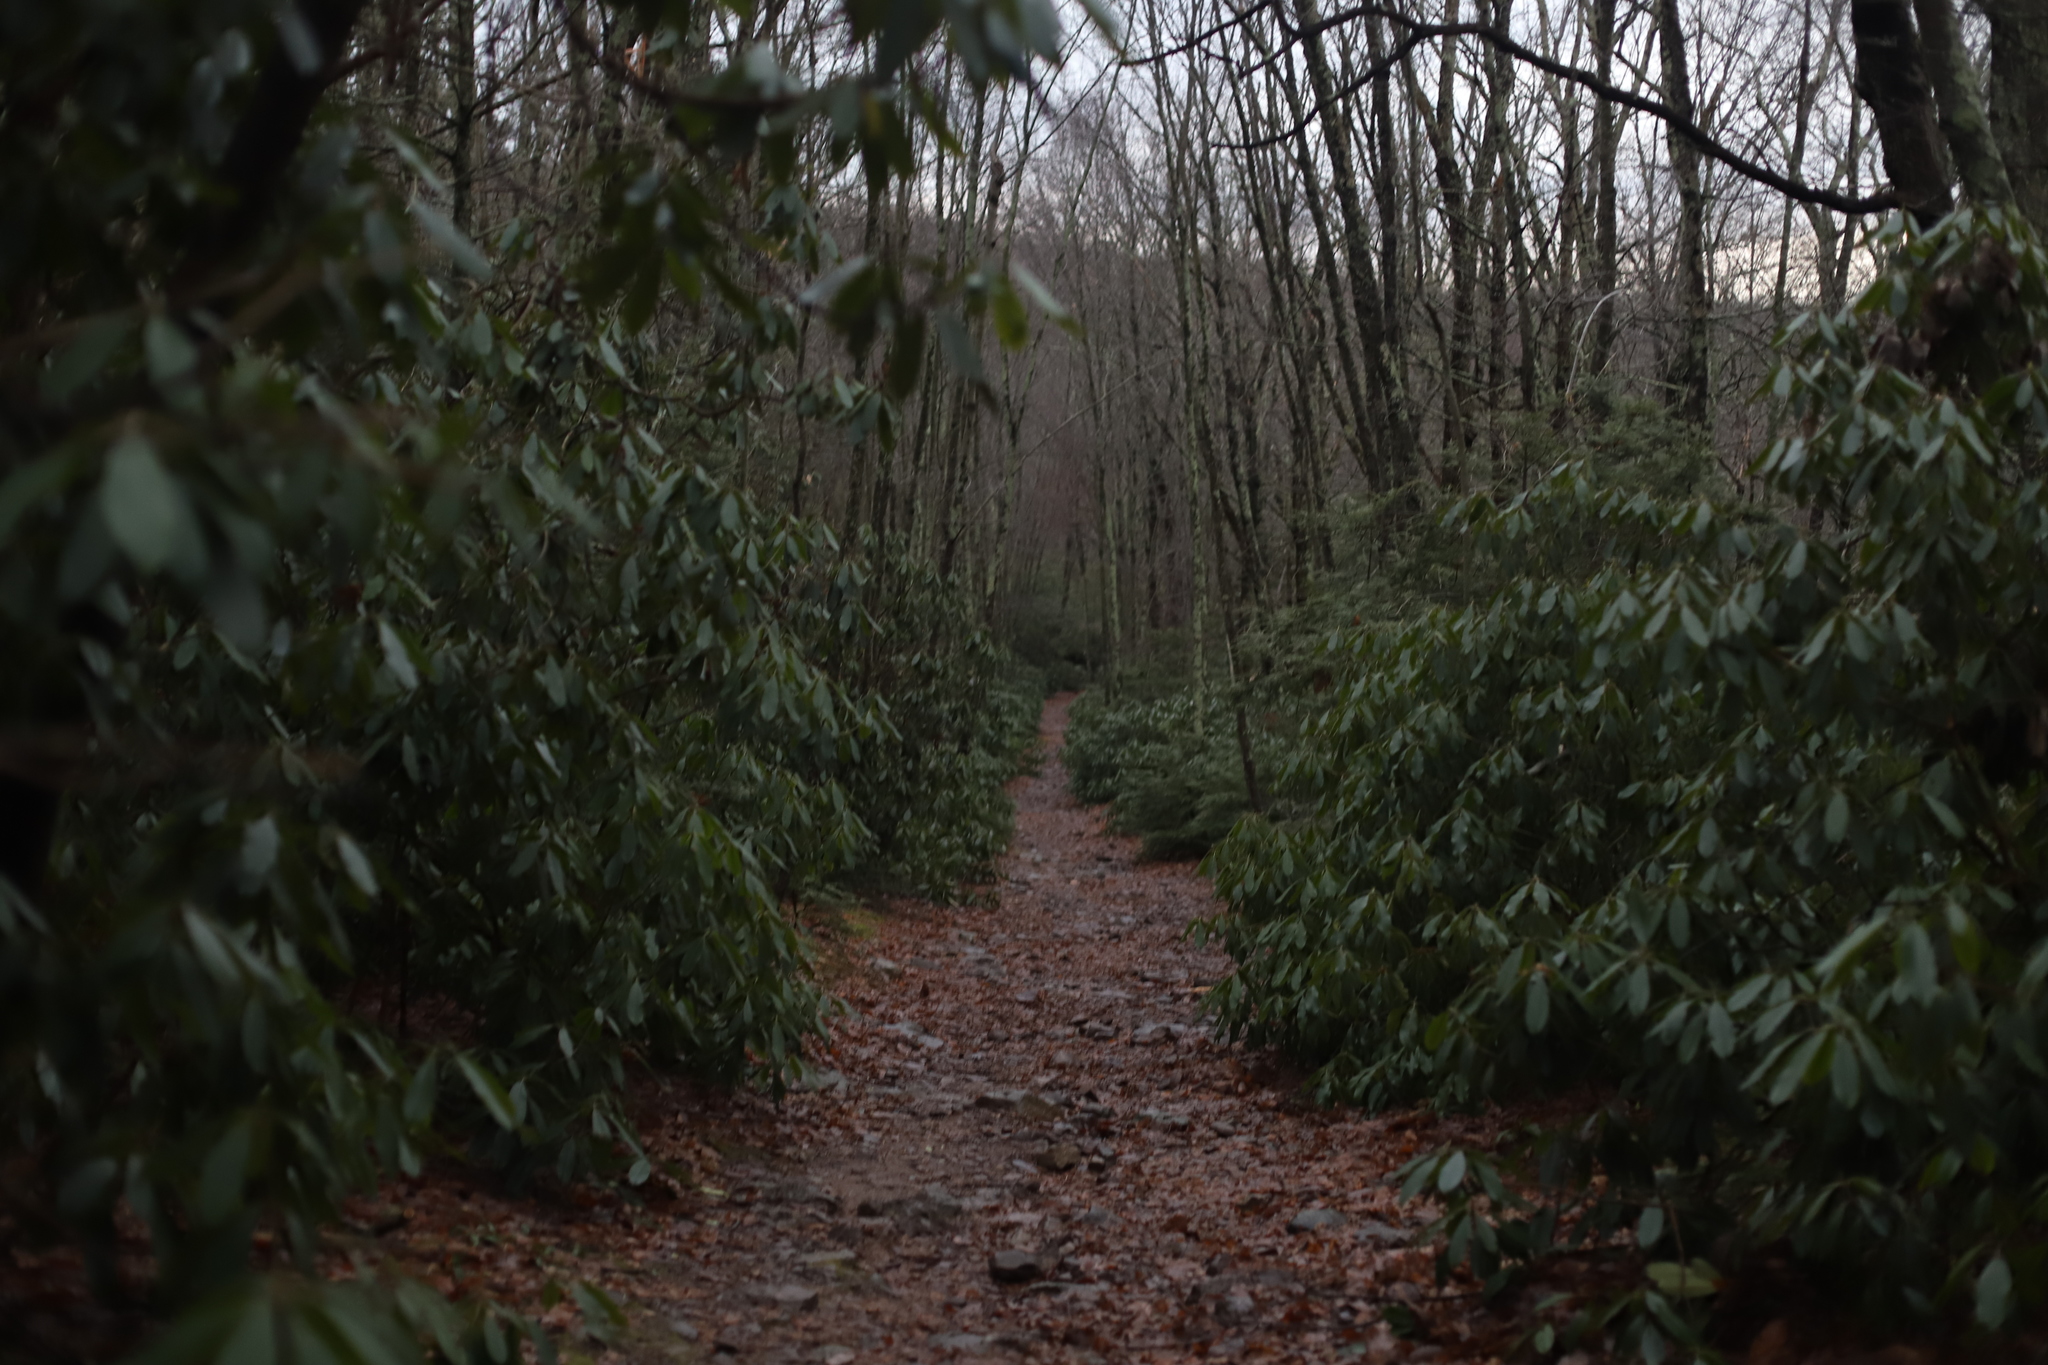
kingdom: Plantae
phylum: Tracheophyta
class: Magnoliopsida
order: Ericales
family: Ericaceae
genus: Rhododendron
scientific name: Rhododendron maximum
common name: Great rhododendron
